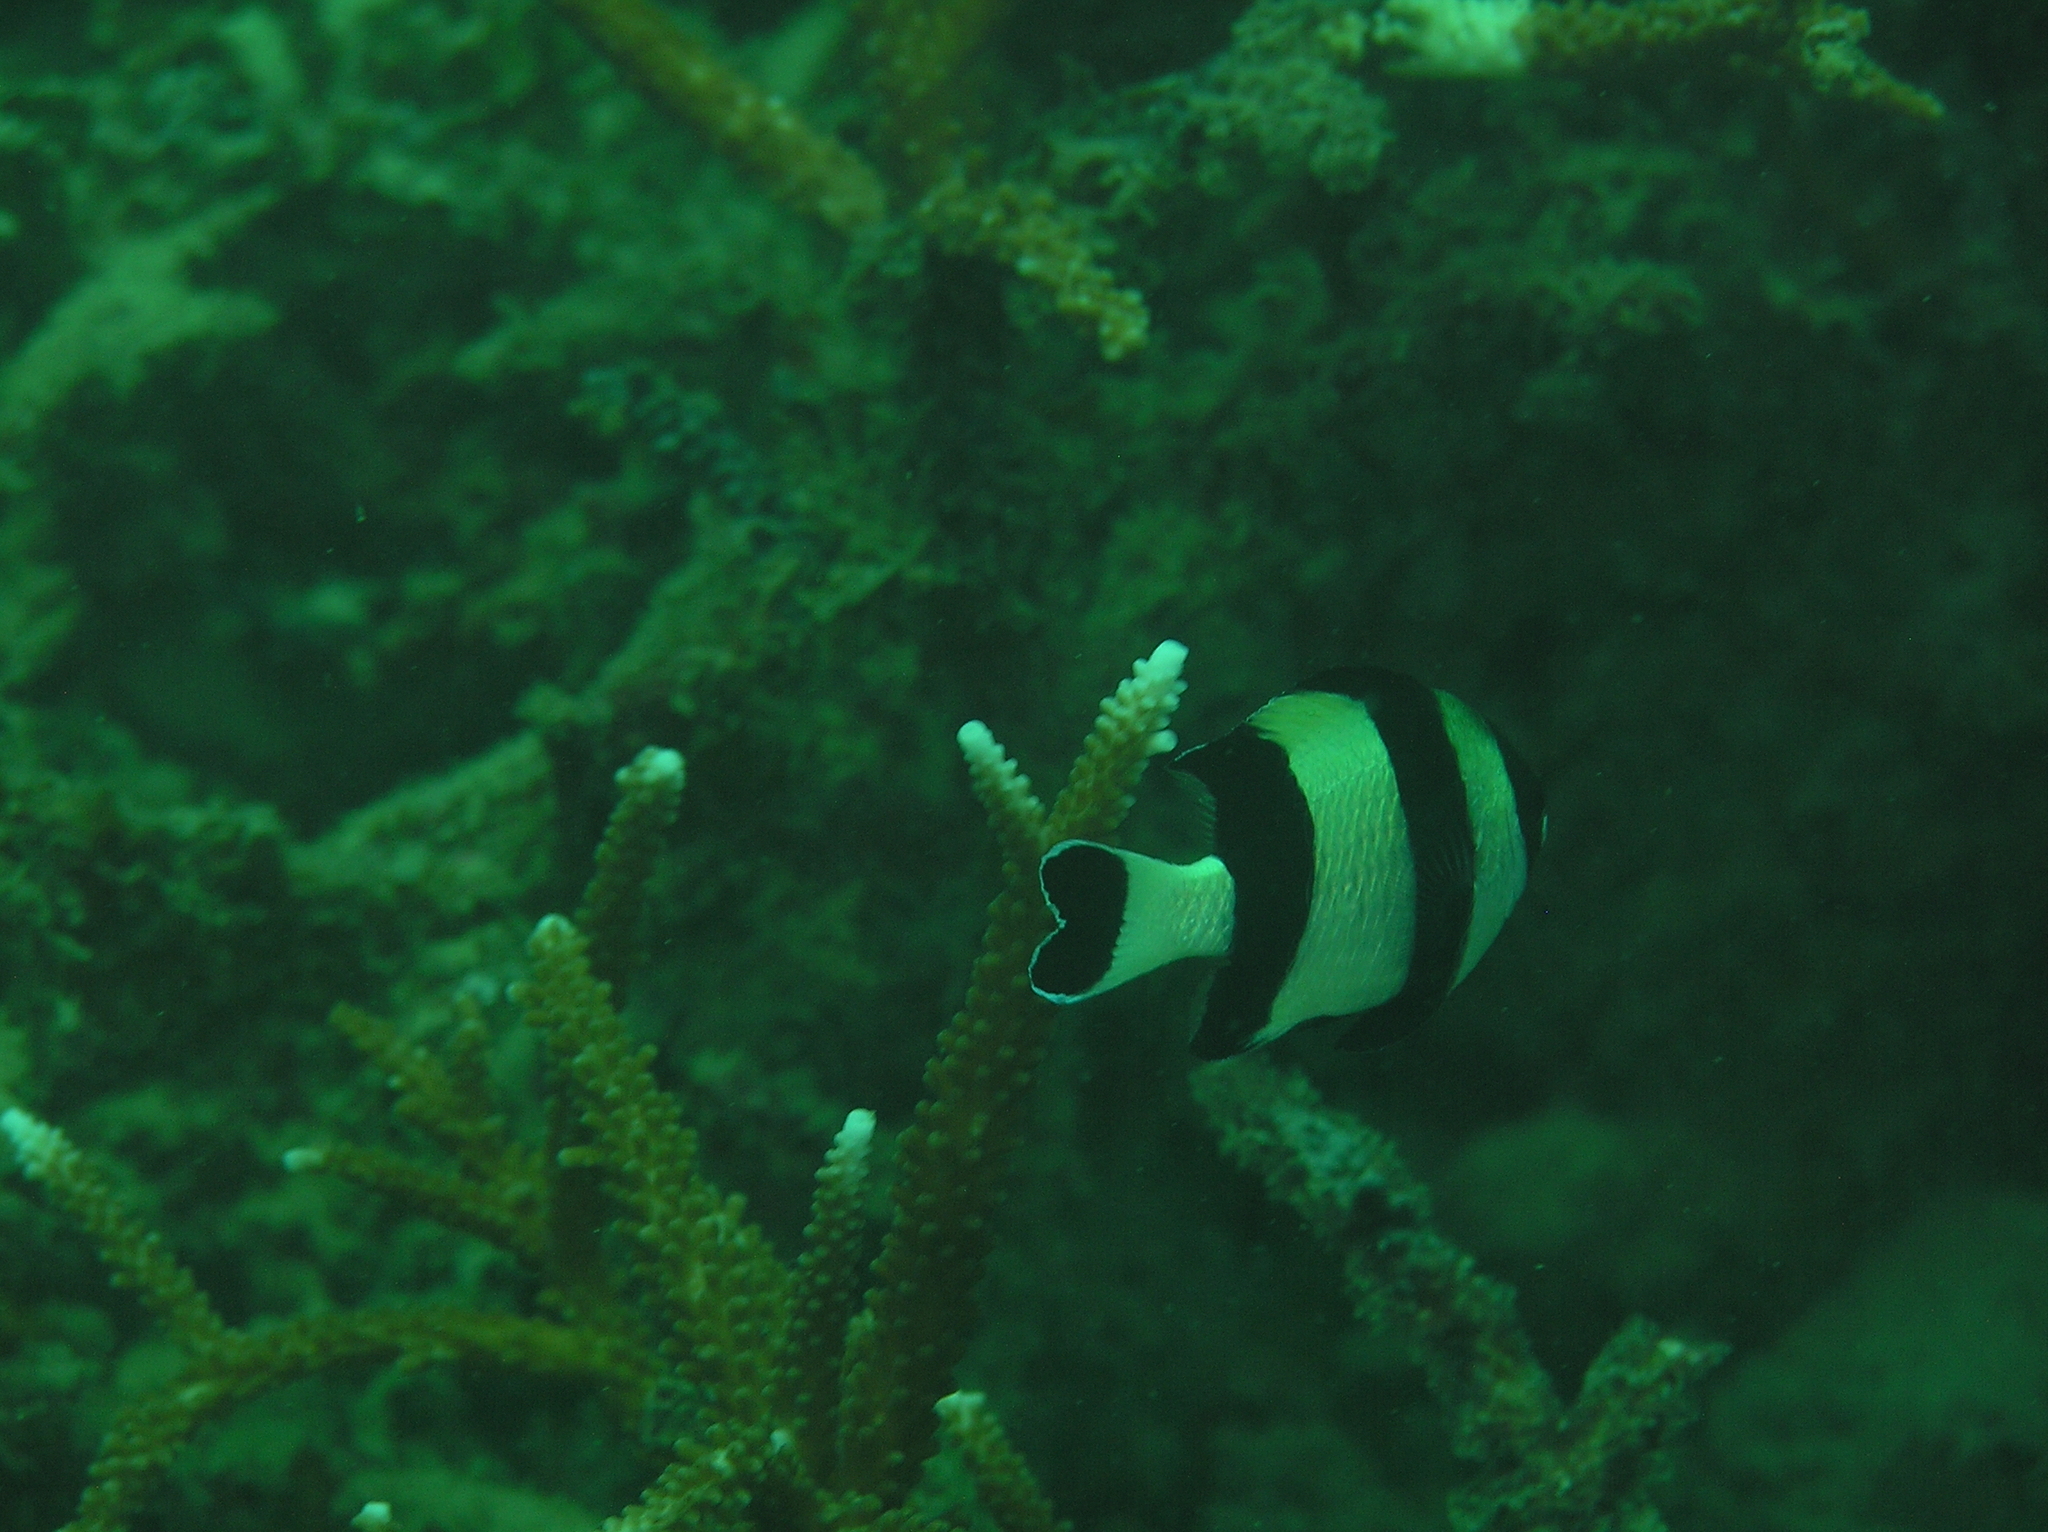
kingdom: Animalia
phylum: Chordata
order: Perciformes
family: Pomacentridae
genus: Dascyllus
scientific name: Dascyllus melanurus
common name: Black-tail dascyllus
